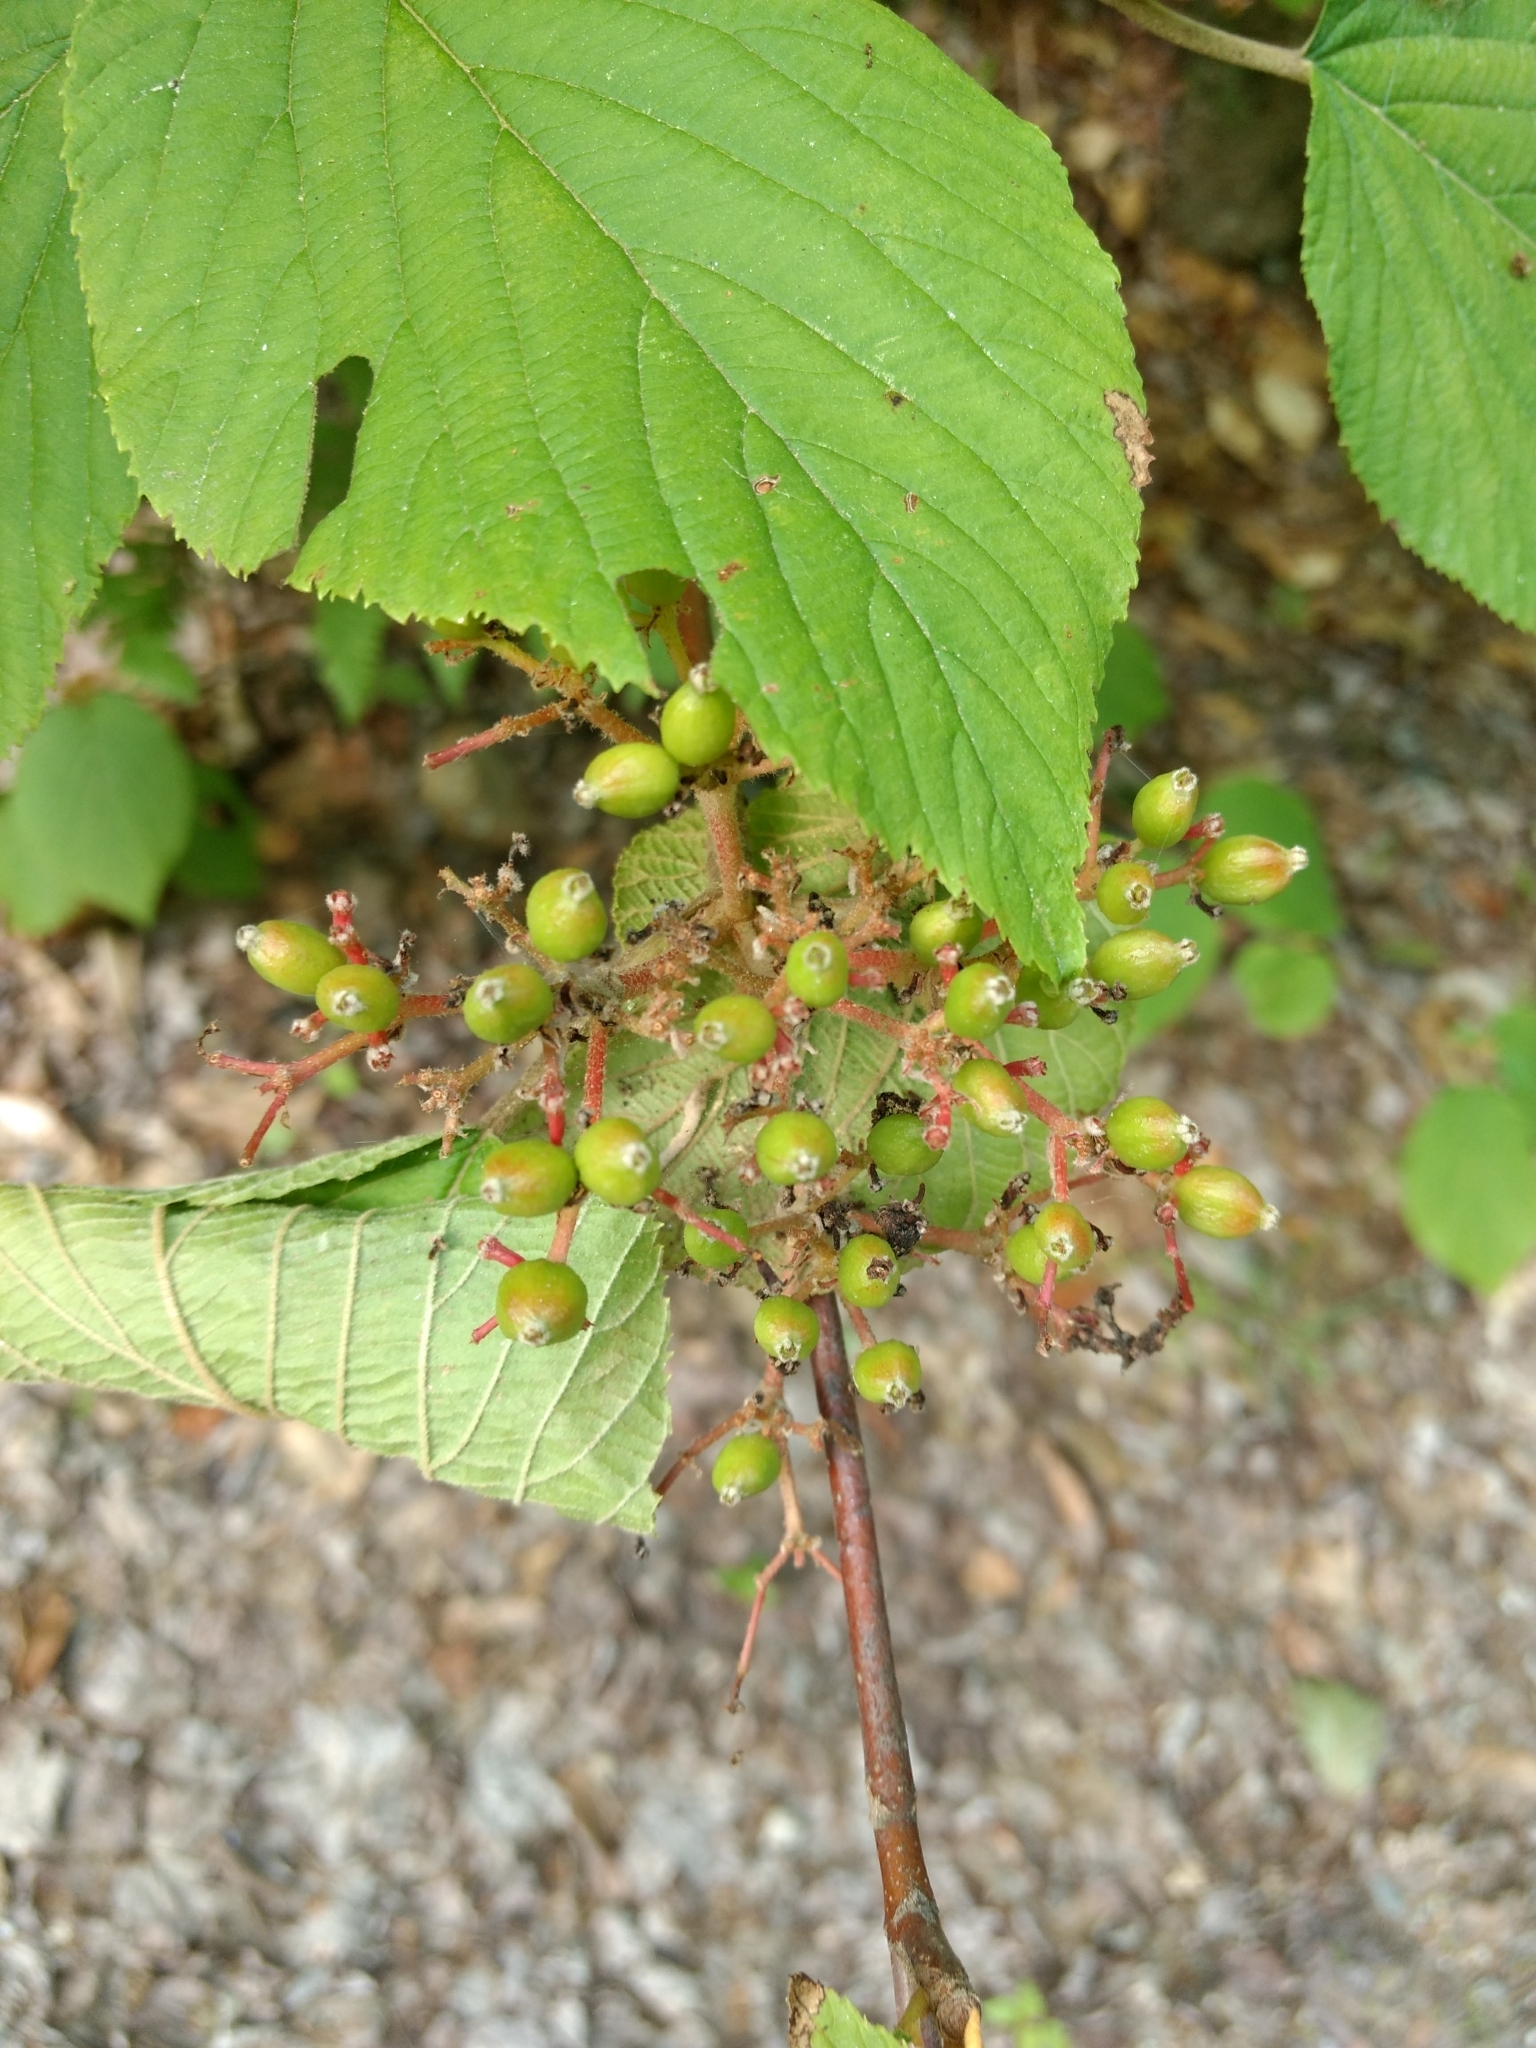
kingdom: Plantae
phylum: Tracheophyta
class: Magnoliopsida
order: Dipsacales
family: Viburnaceae
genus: Viburnum
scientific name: Viburnum lantanoides
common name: Hobblebush
